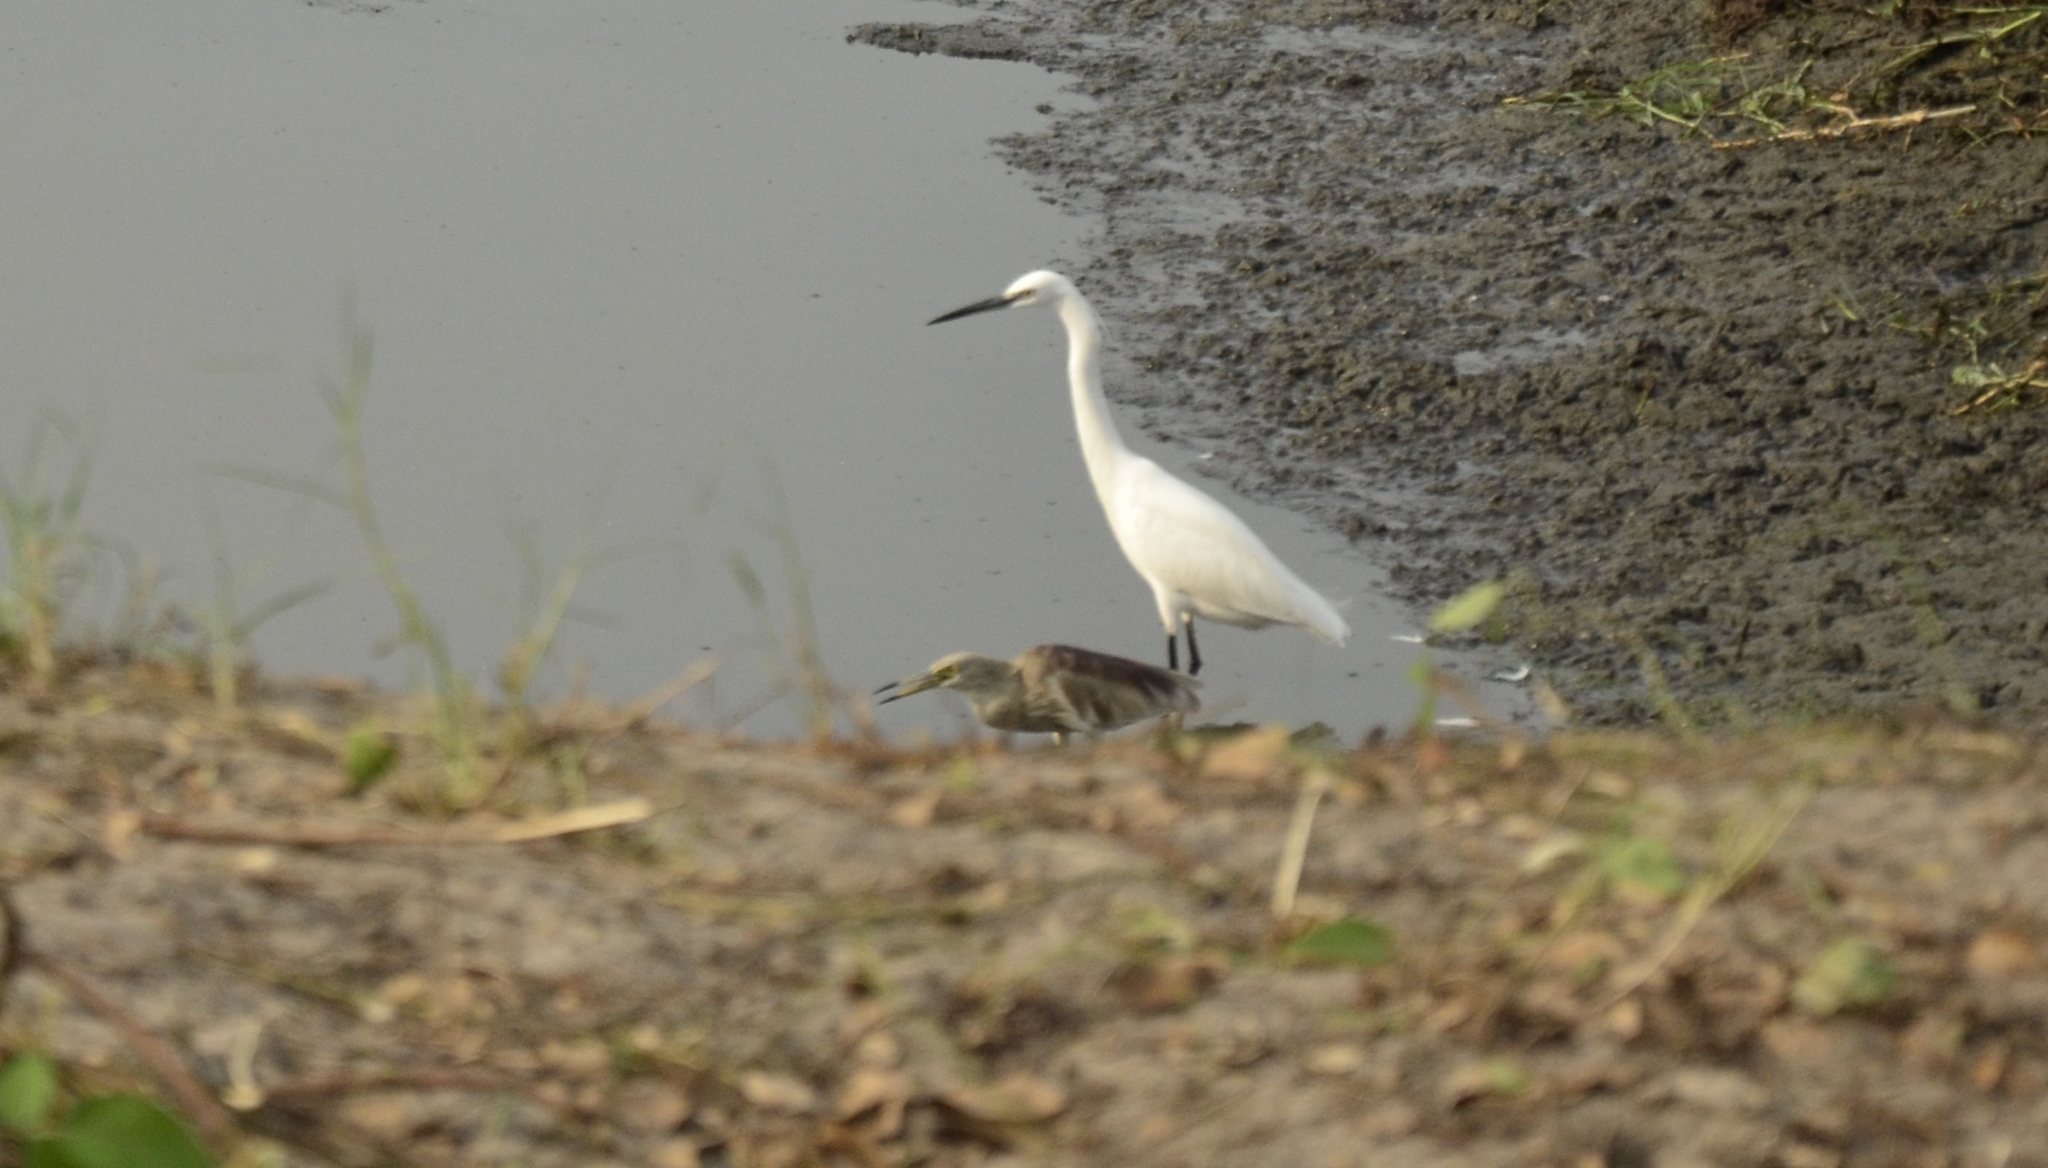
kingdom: Animalia
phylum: Chordata
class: Aves
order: Pelecaniformes
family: Ardeidae
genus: Egretta
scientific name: Egretta garzetta
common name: Little egret
